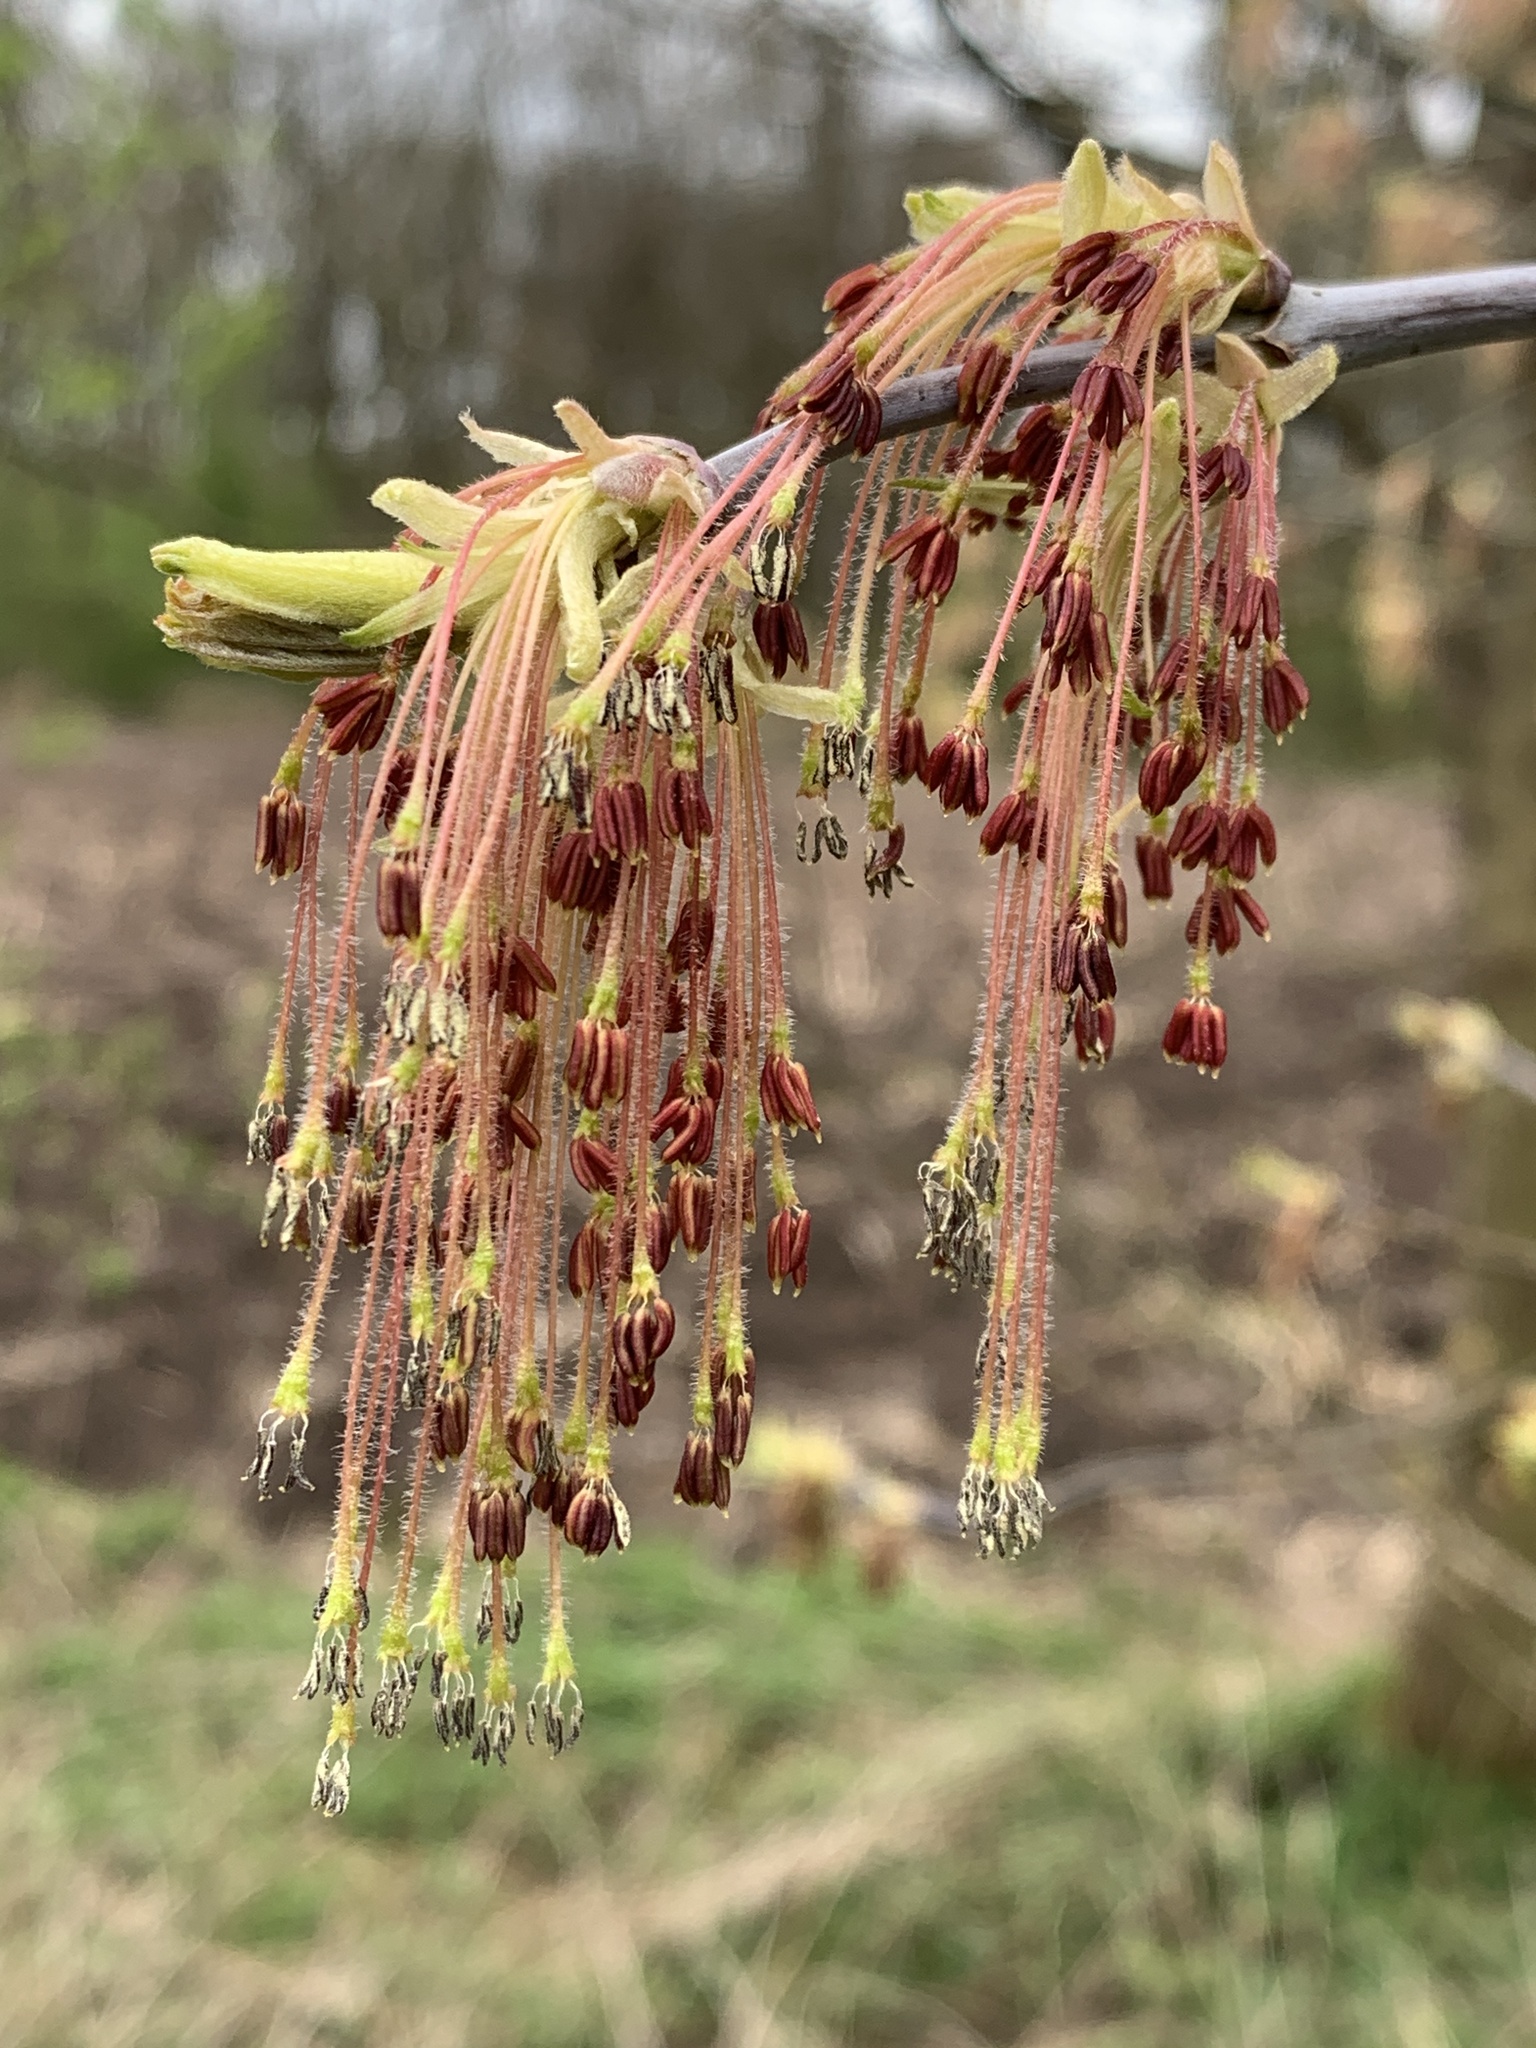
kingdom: Plantae
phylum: Tracheophyta
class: Magnoliopsida
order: Sapindales
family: Sapindaceae
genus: Acer
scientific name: Acer negundo
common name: Ashleaf maple
